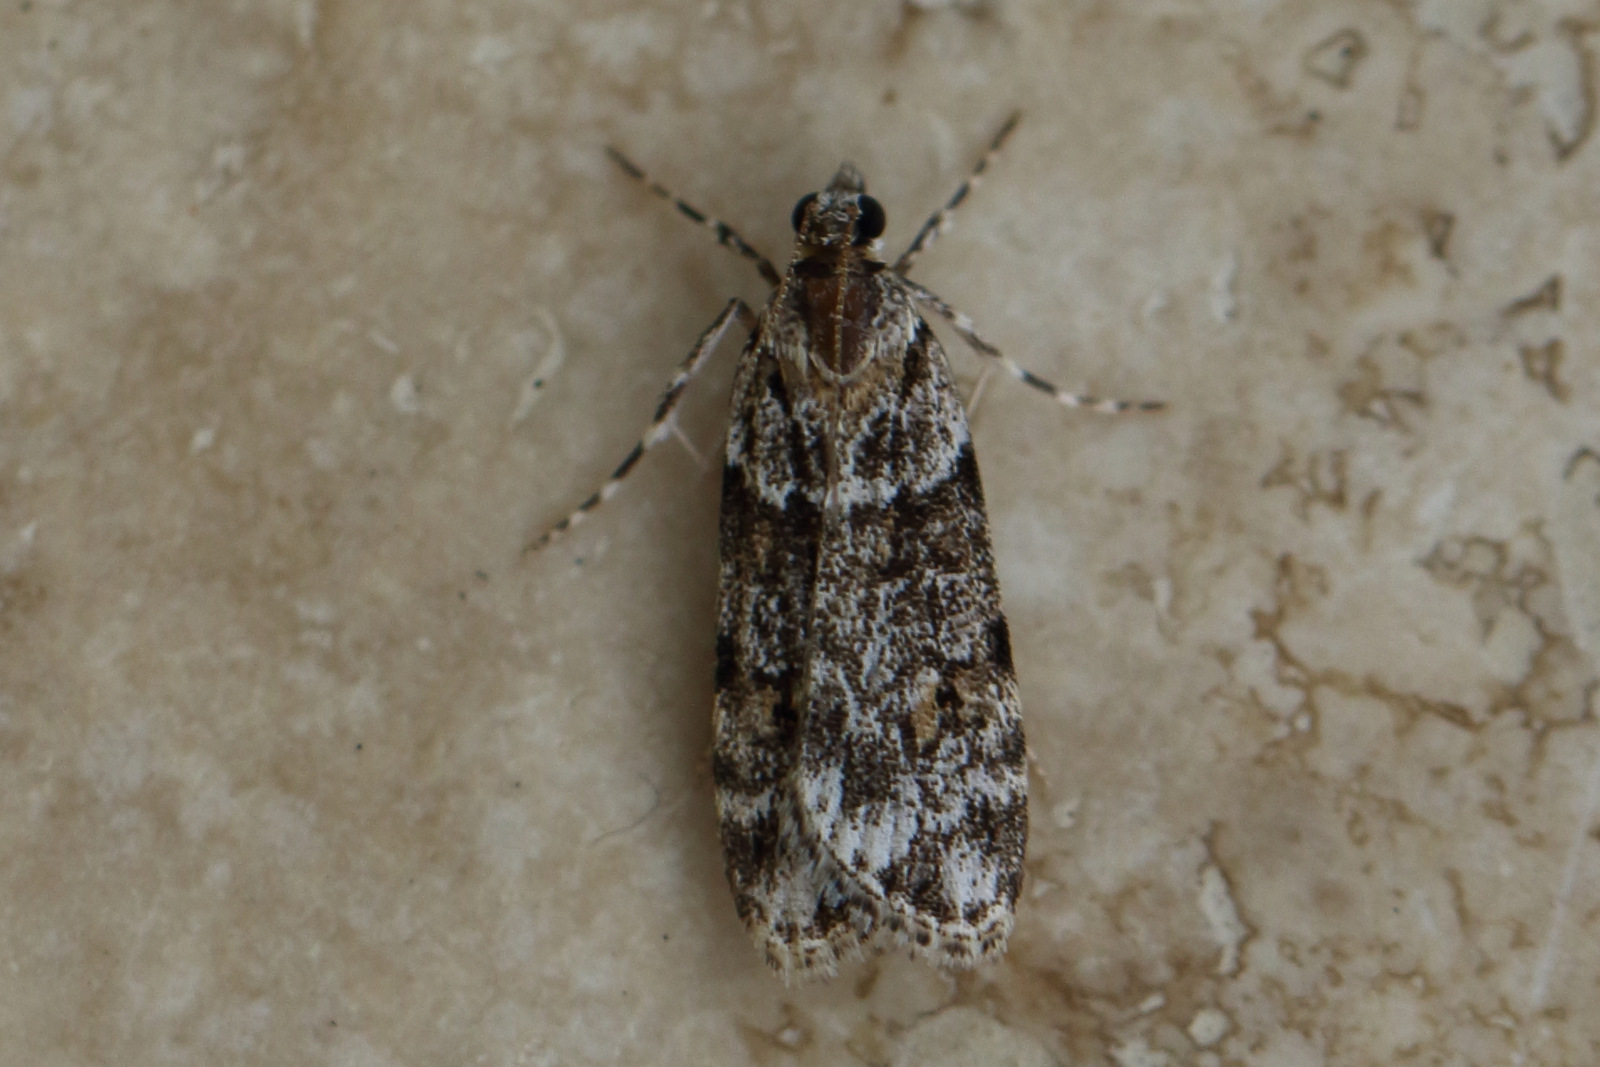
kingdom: Animalia
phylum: Arthropoda
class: Insecta
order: Lepidoptera
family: Crambidae
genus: Scoparia
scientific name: Scoparia chiasta
